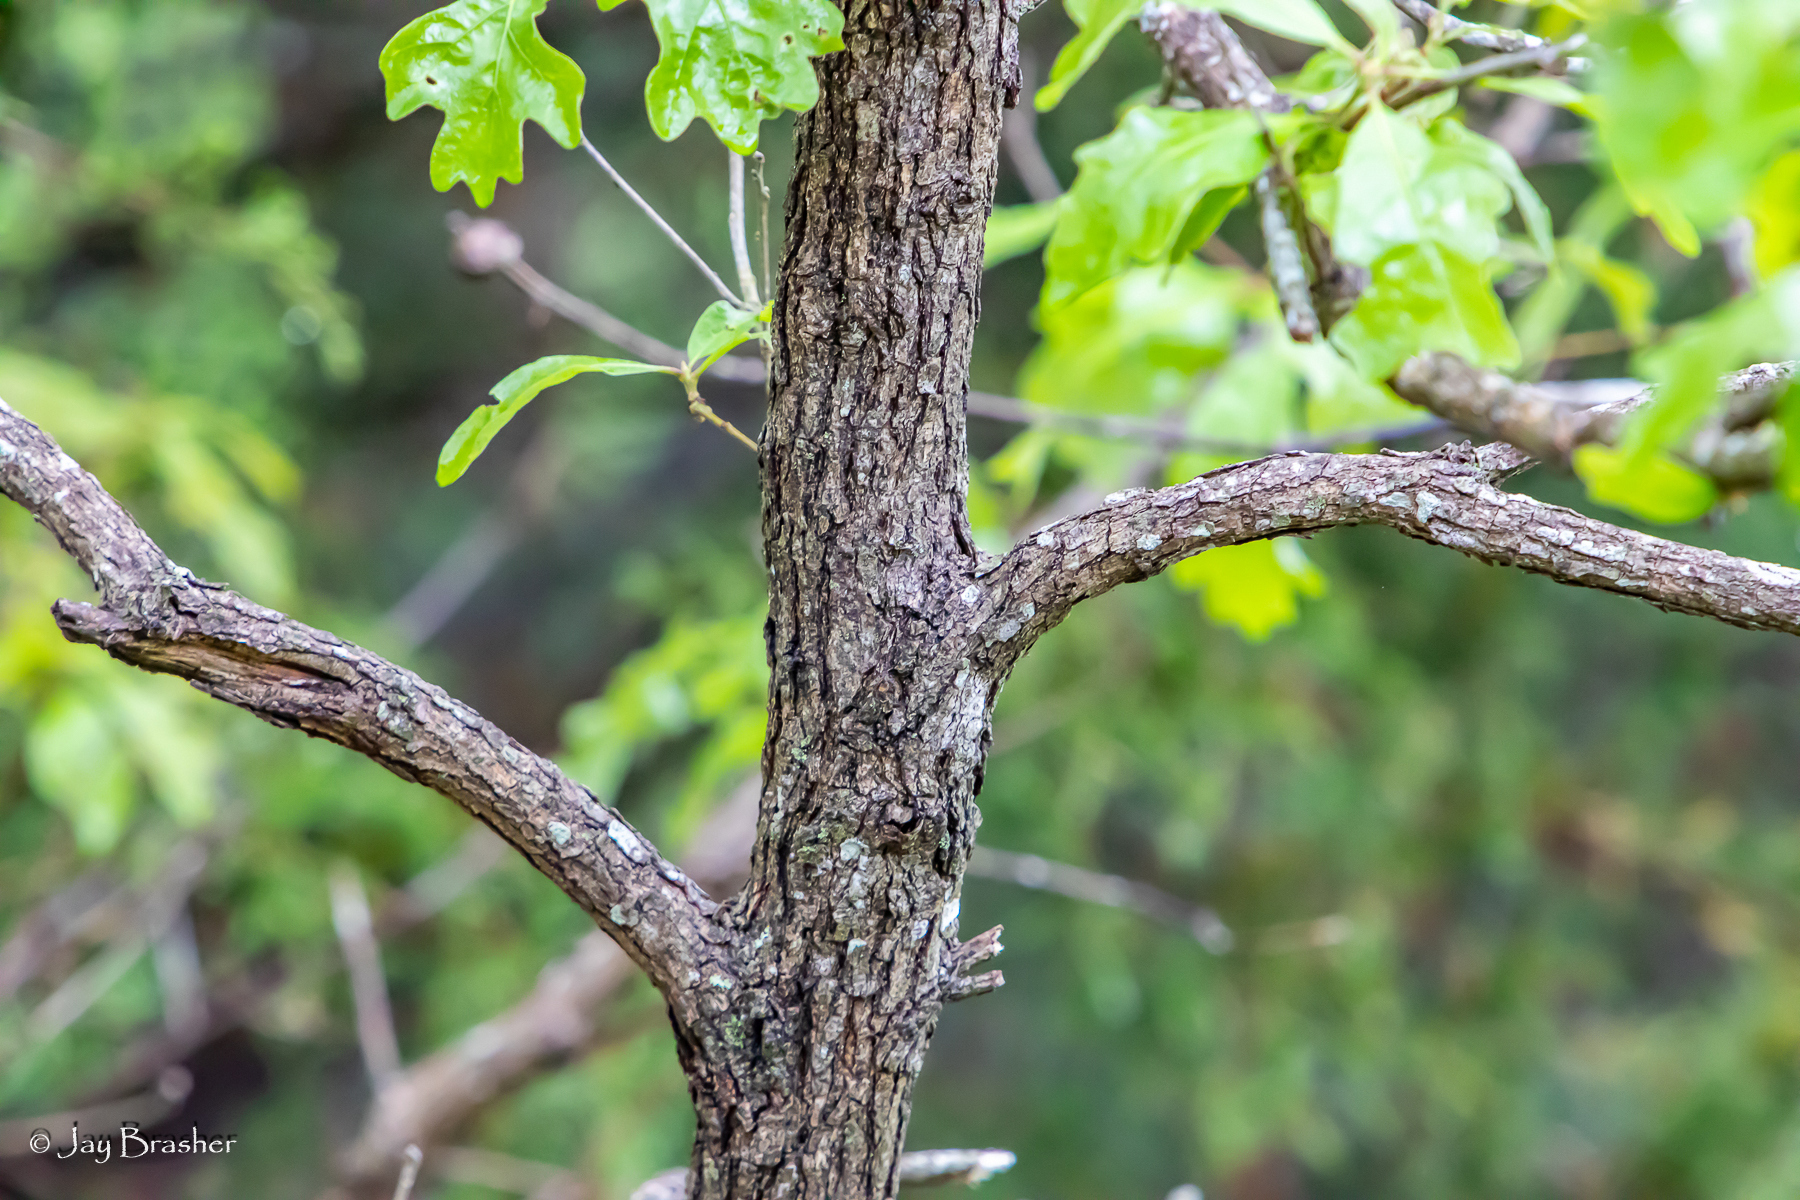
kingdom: Plantae
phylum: Tracheophyta
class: Magnoliopsida
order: Fagales
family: Fagaceae
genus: Quercus
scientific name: Quercus stellata
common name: Post oak
